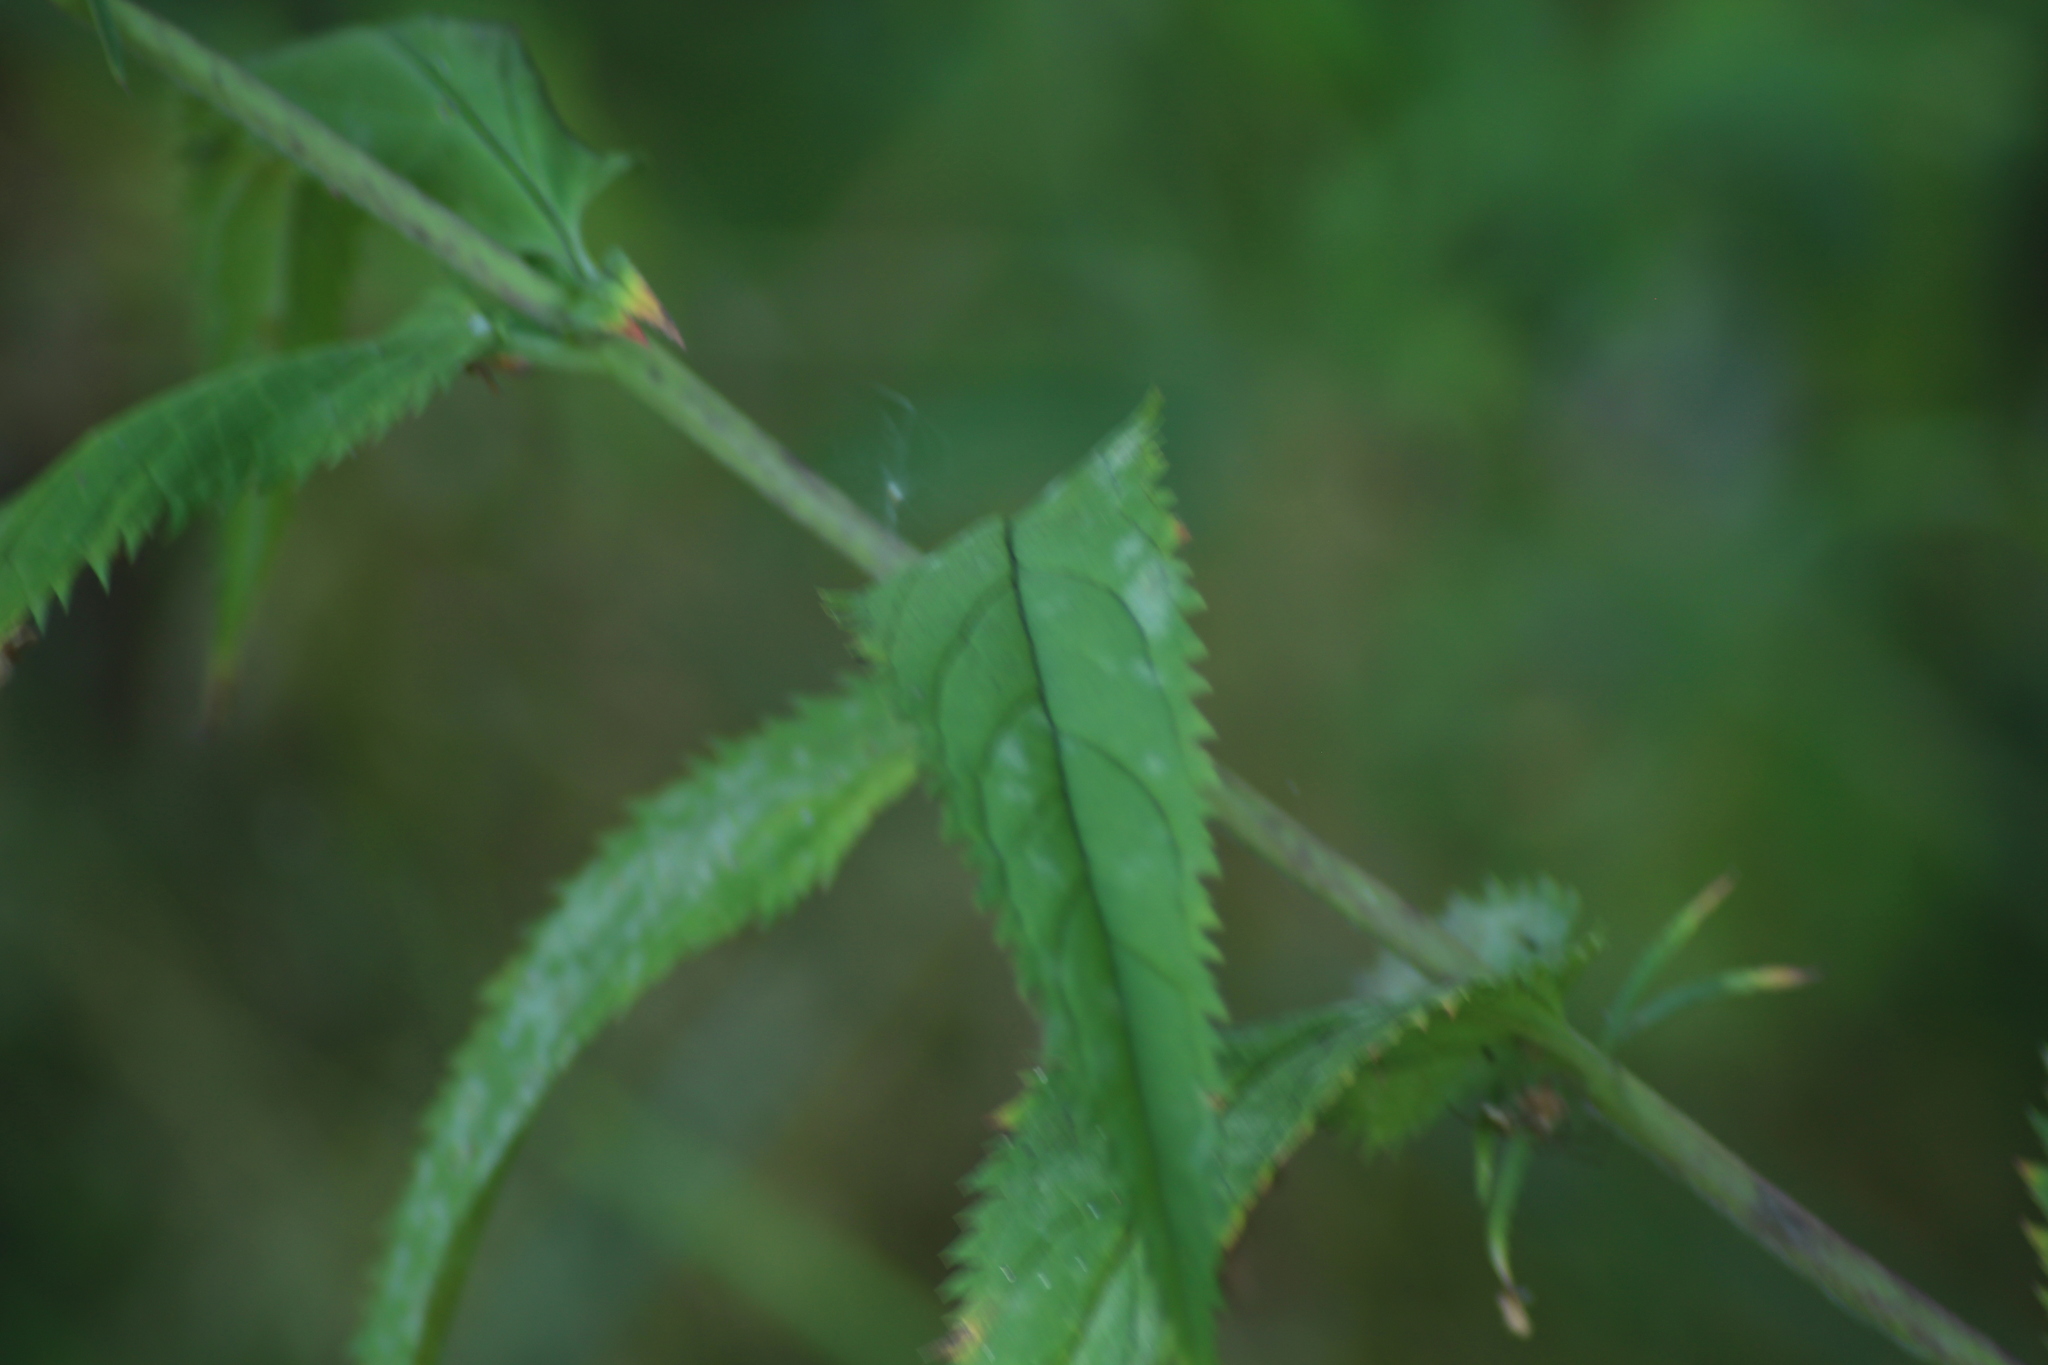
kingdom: Plantae
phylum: Tracheophyta
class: Magnoliopsida
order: Lamiales
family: Plantaginaceae
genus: Veronica
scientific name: Veronica longifolia
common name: Garden speedwell
